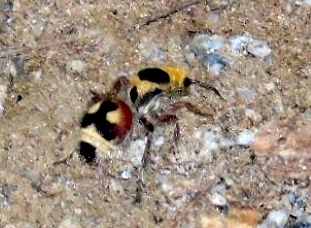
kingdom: Animalia
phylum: Arthropoda
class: Insecta
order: Hymenoptera
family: Mutillidae
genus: Dasymutilla
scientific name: Dasymutilla
